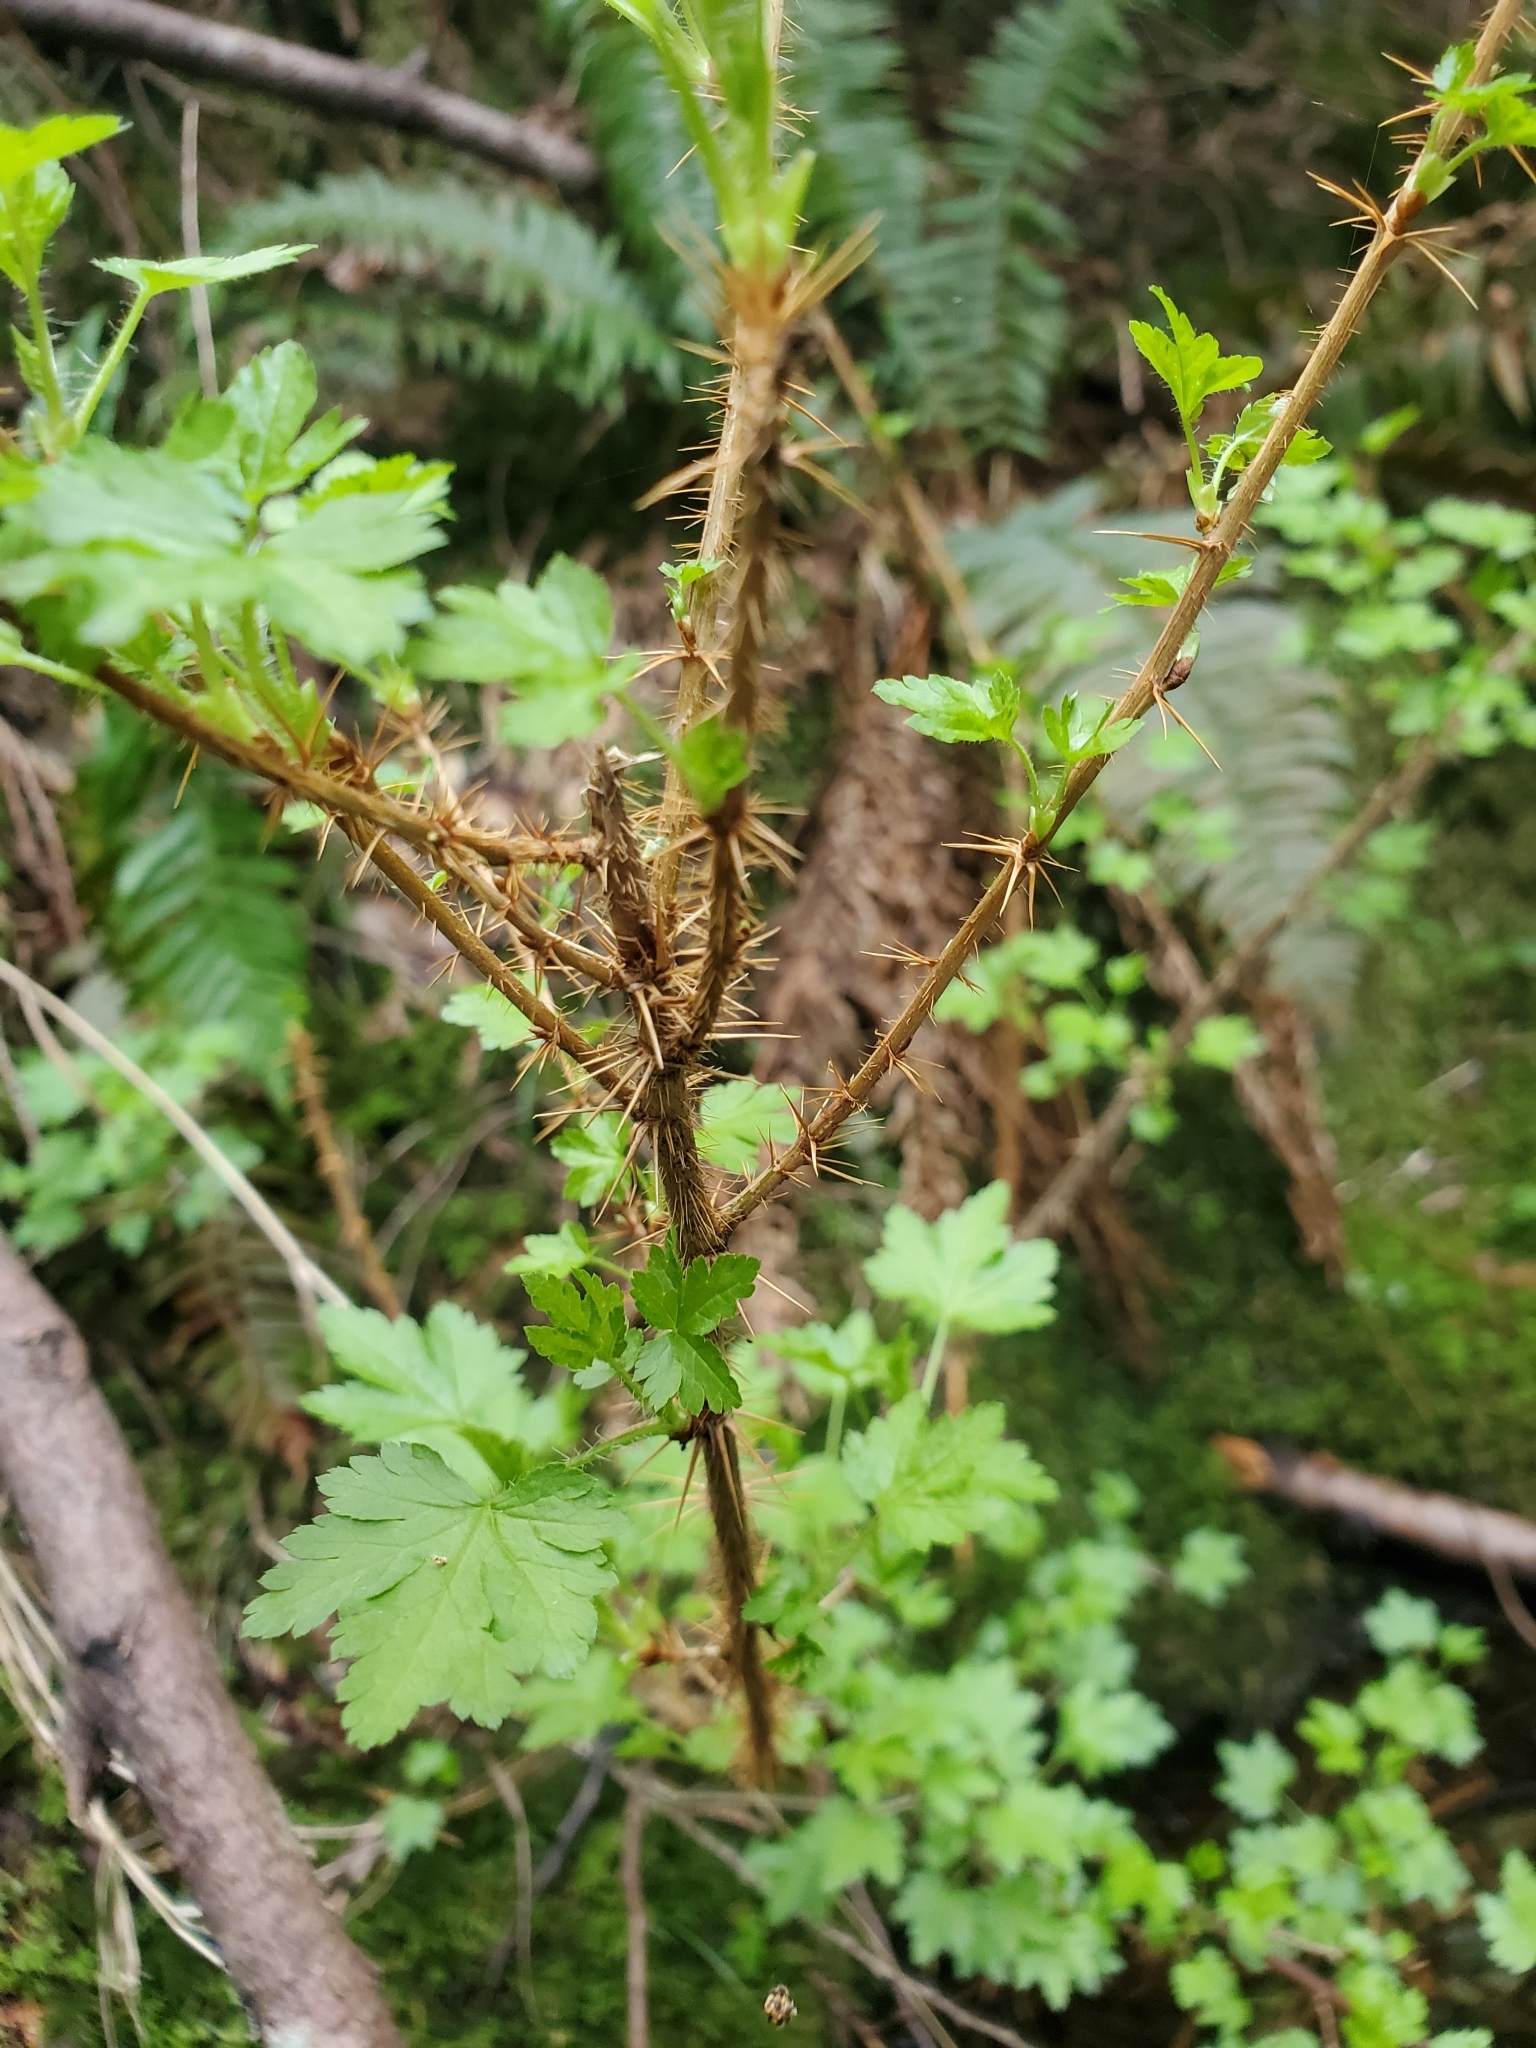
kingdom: Plantae
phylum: Tracheophyta
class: Magnoliopsida
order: Saxifragales
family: Grossulariaceae
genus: Ribes
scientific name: Ribes lacustre
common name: Black gooseberry
